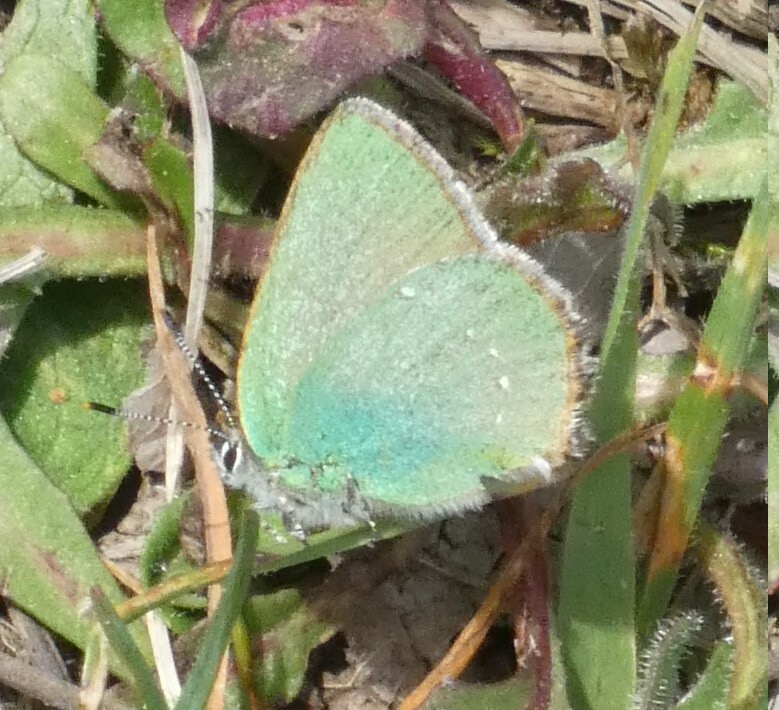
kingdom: Animalia
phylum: Arthropoda
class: Insecta
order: Lepidoptera
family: Lycaenidae
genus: Callophrys
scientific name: Callophrys rubi
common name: Green hairstreak
